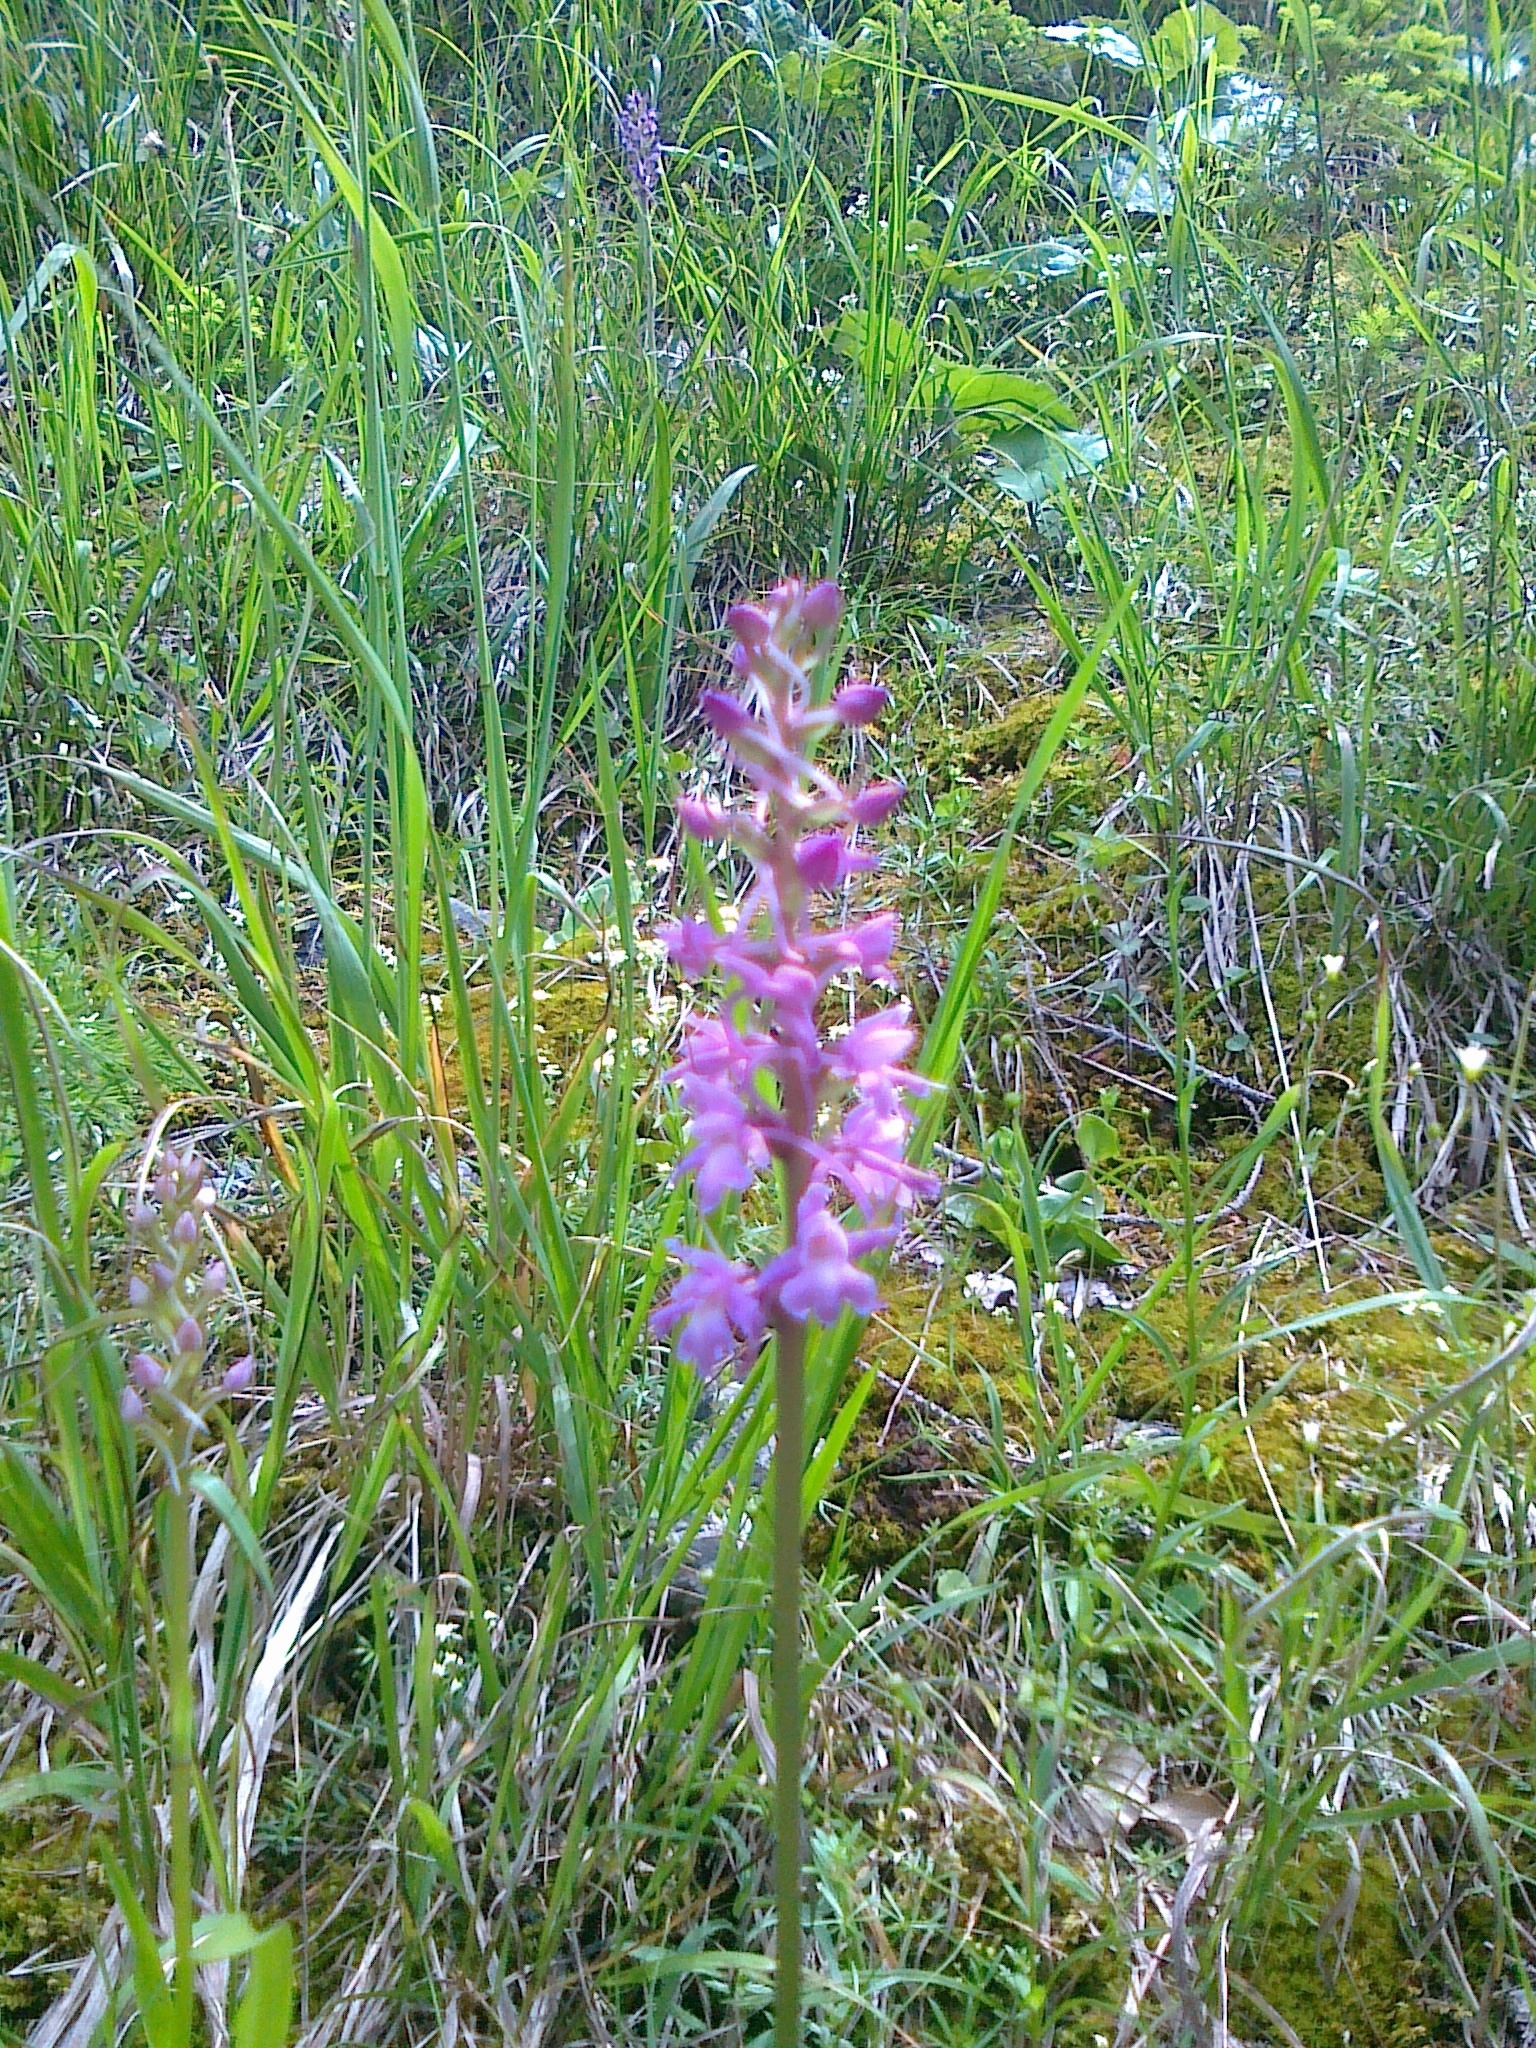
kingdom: Plantae
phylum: Tracheophyta
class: Liliopsida
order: Asparagales
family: Orchidaceae
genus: Gymnadenia
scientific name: Gymnadenia conopsea
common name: Fragrant orchid
